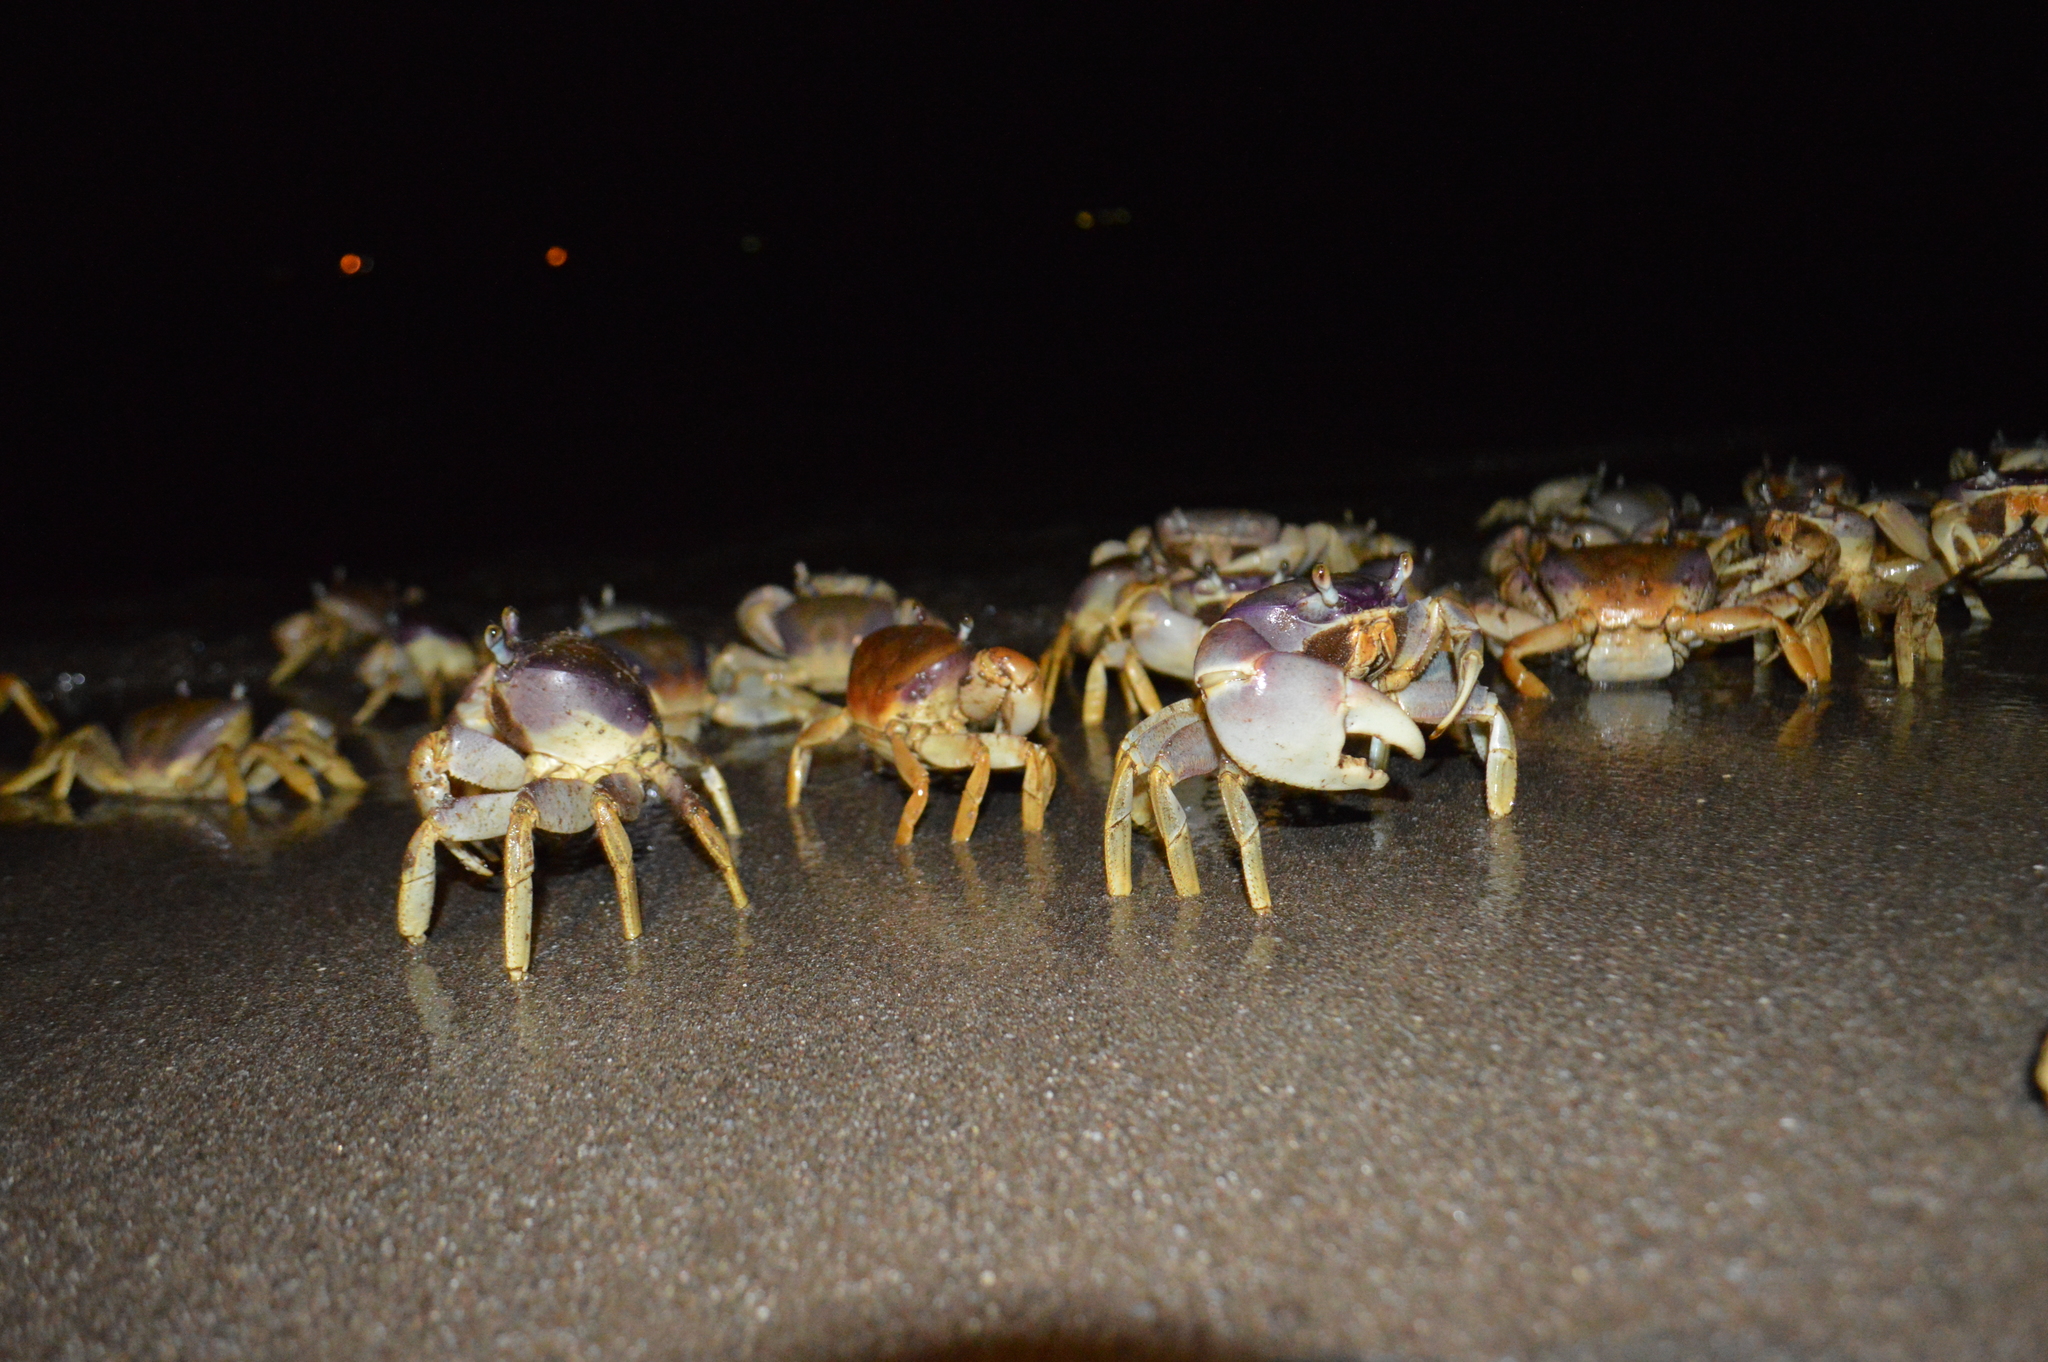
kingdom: Animalia
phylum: Arthropoda
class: Malacostraca
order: Decapoda
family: Gecarcinidae
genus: Cardisoma
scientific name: Cardisoma guanhumi
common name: Great land crab
